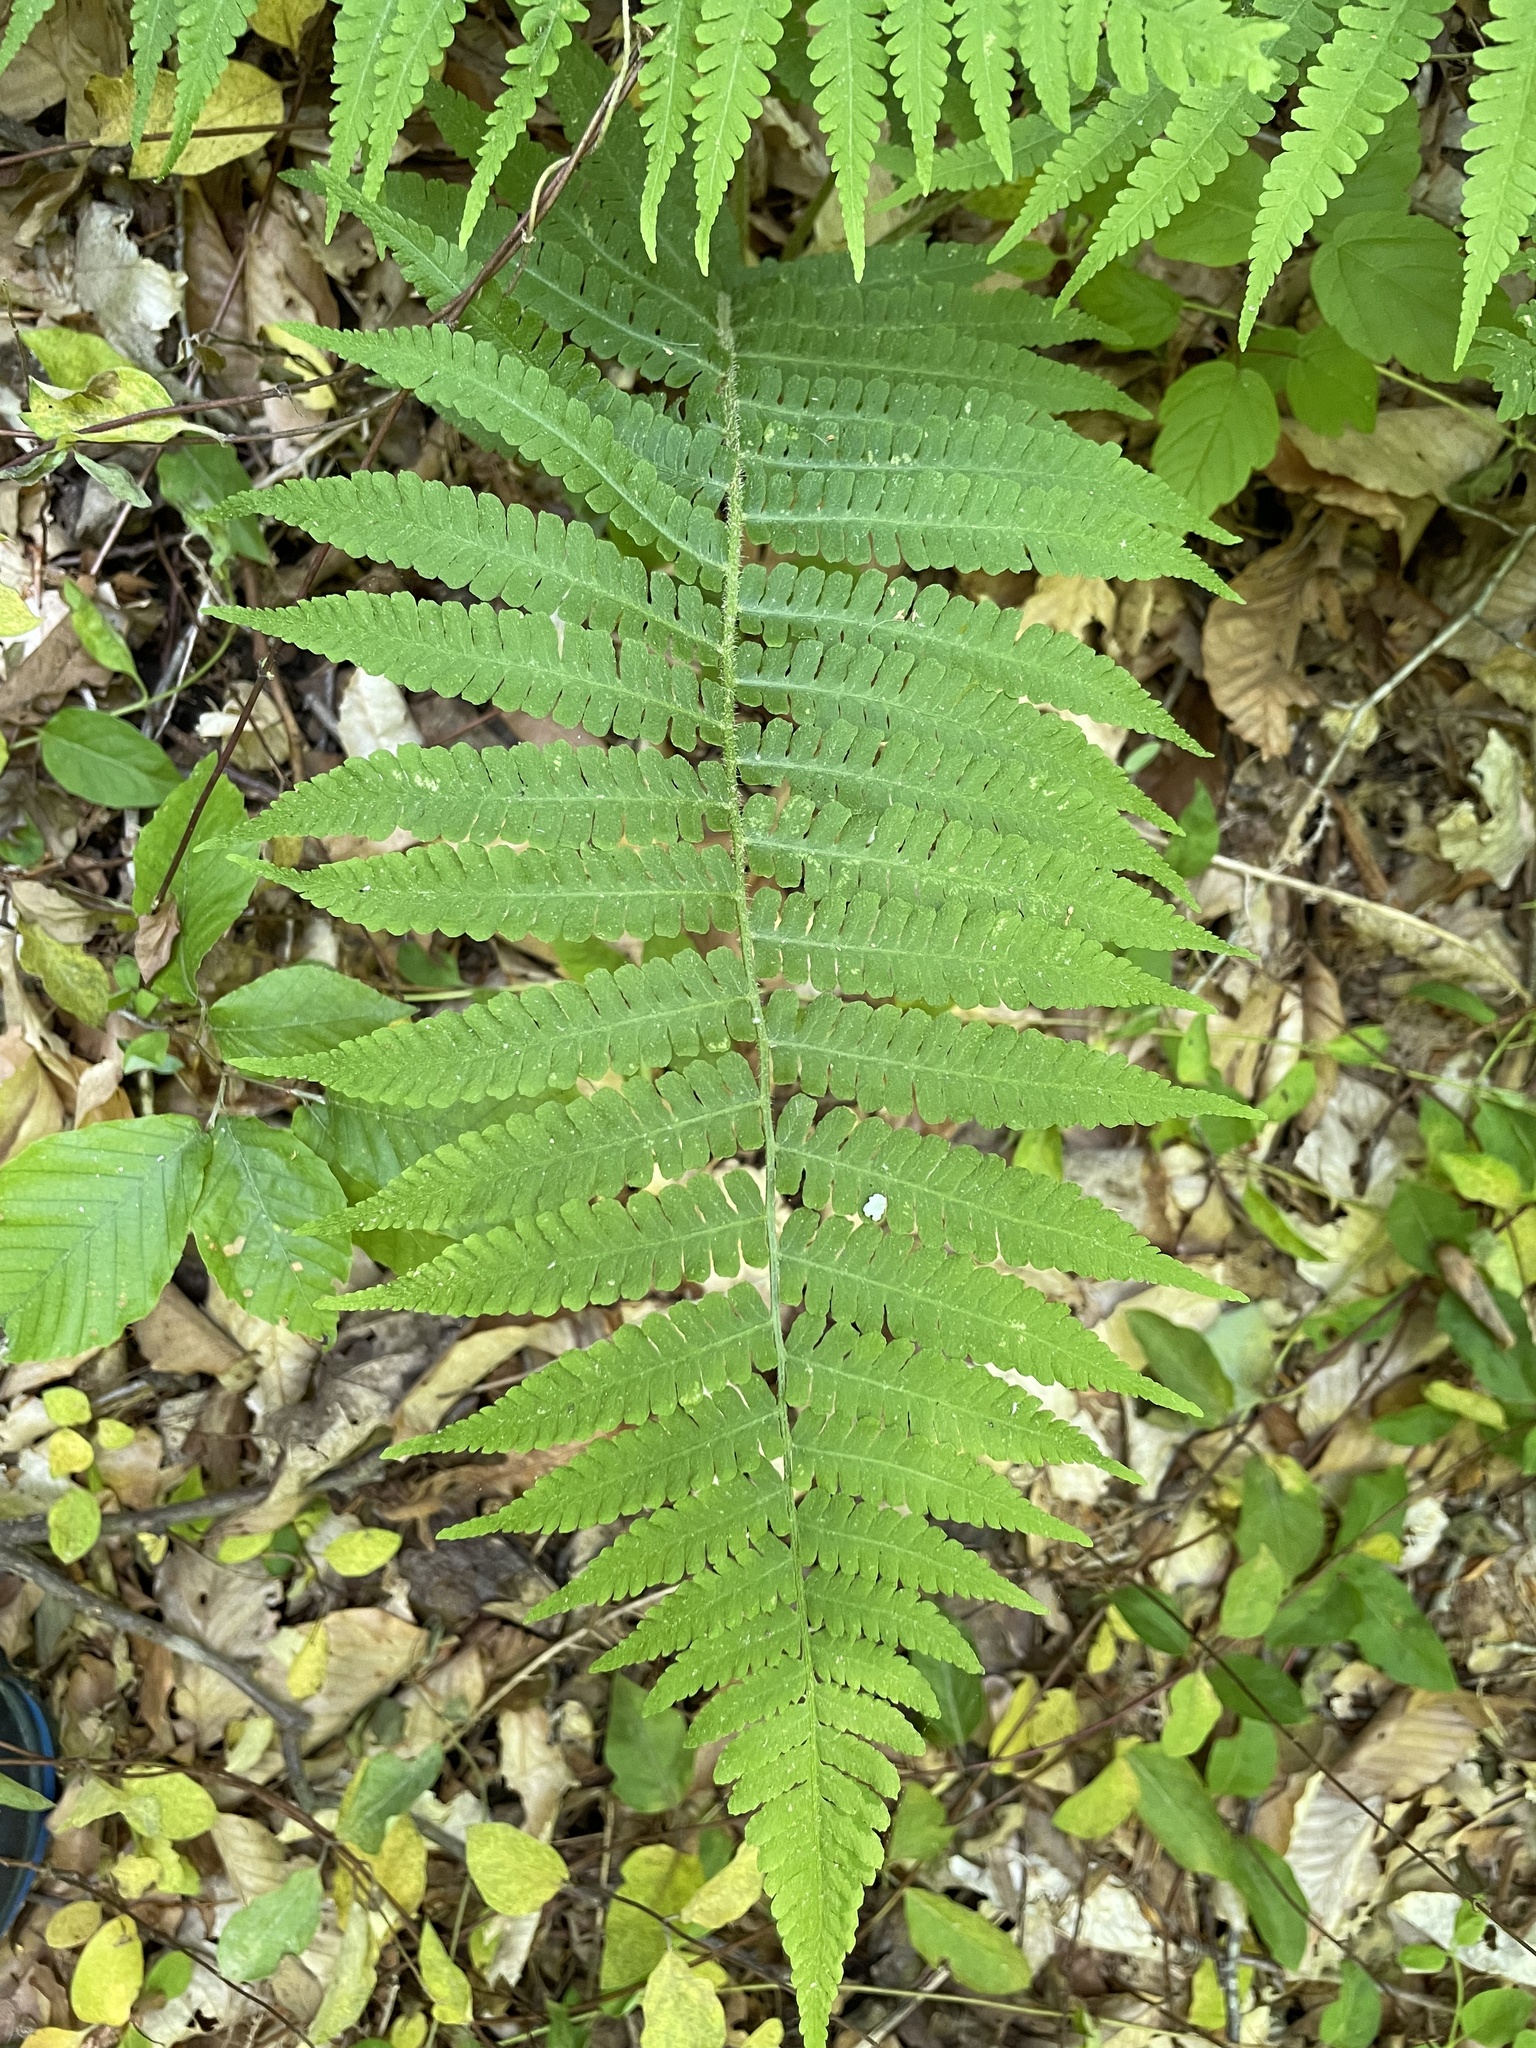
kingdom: Plantae
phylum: Tracheophyta
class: Polypodiopsida
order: Polypodiales
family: Athyriaceae
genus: Deparia
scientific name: Deparia acrostichoides
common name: Silver false spleenwort
